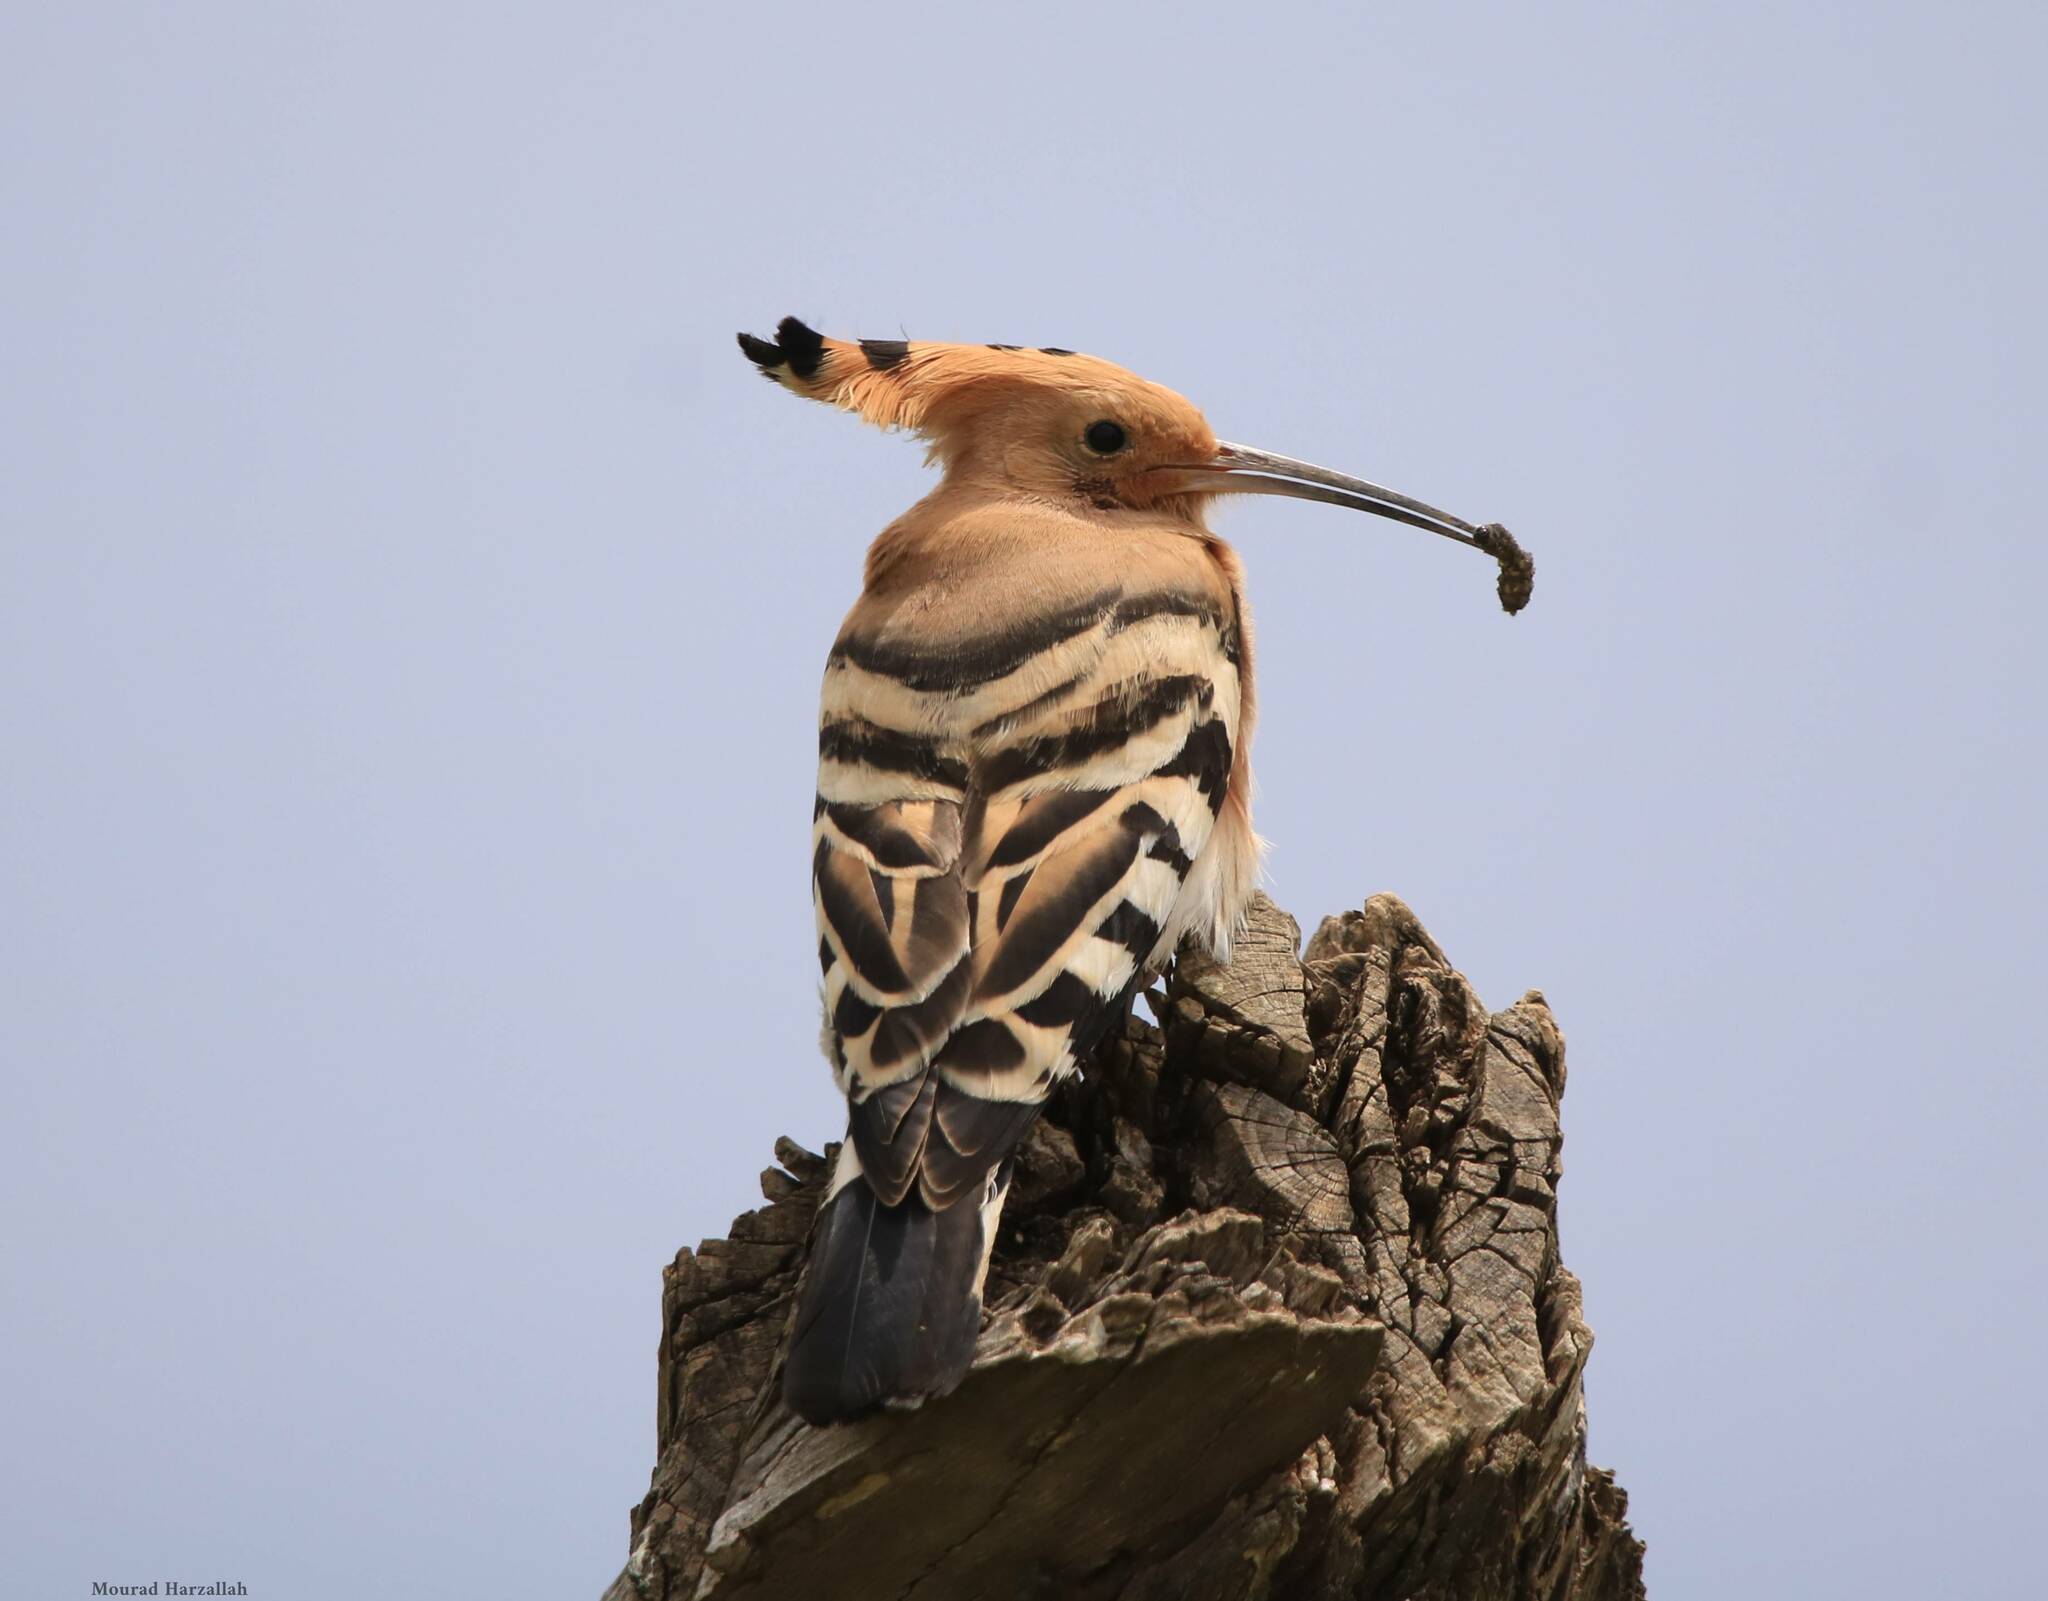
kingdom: Animalia
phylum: Chordata
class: Aves
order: Bucerotiformes
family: Upupidae
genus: Upupa
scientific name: Upupa epops
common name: Eurasian hoopoe
